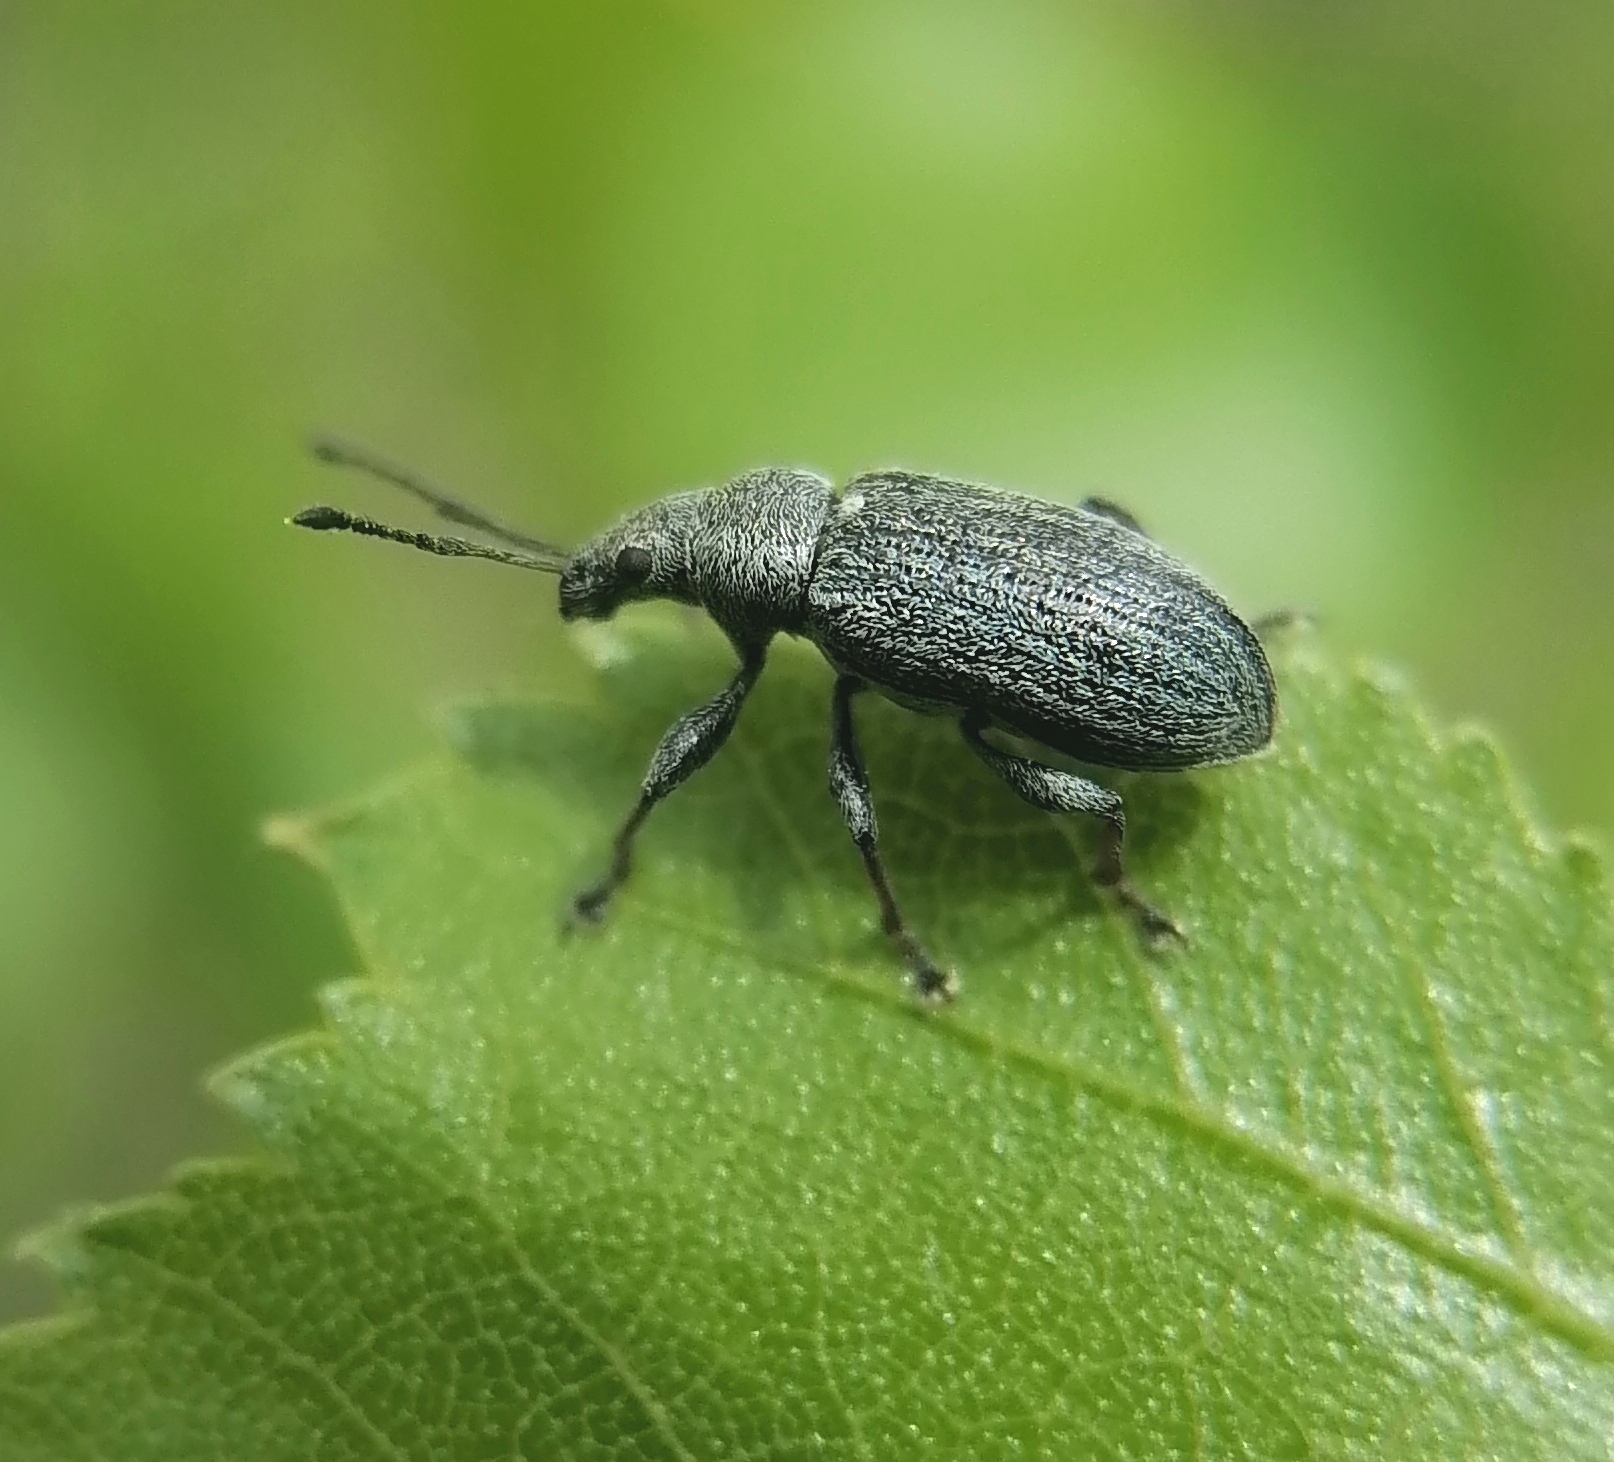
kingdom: Animalia
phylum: Arthropoda
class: Insecta
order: Coleoptera
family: Curculionidae
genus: Phyllobius
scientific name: Phyllobius pyri
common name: Common leaf weevil
